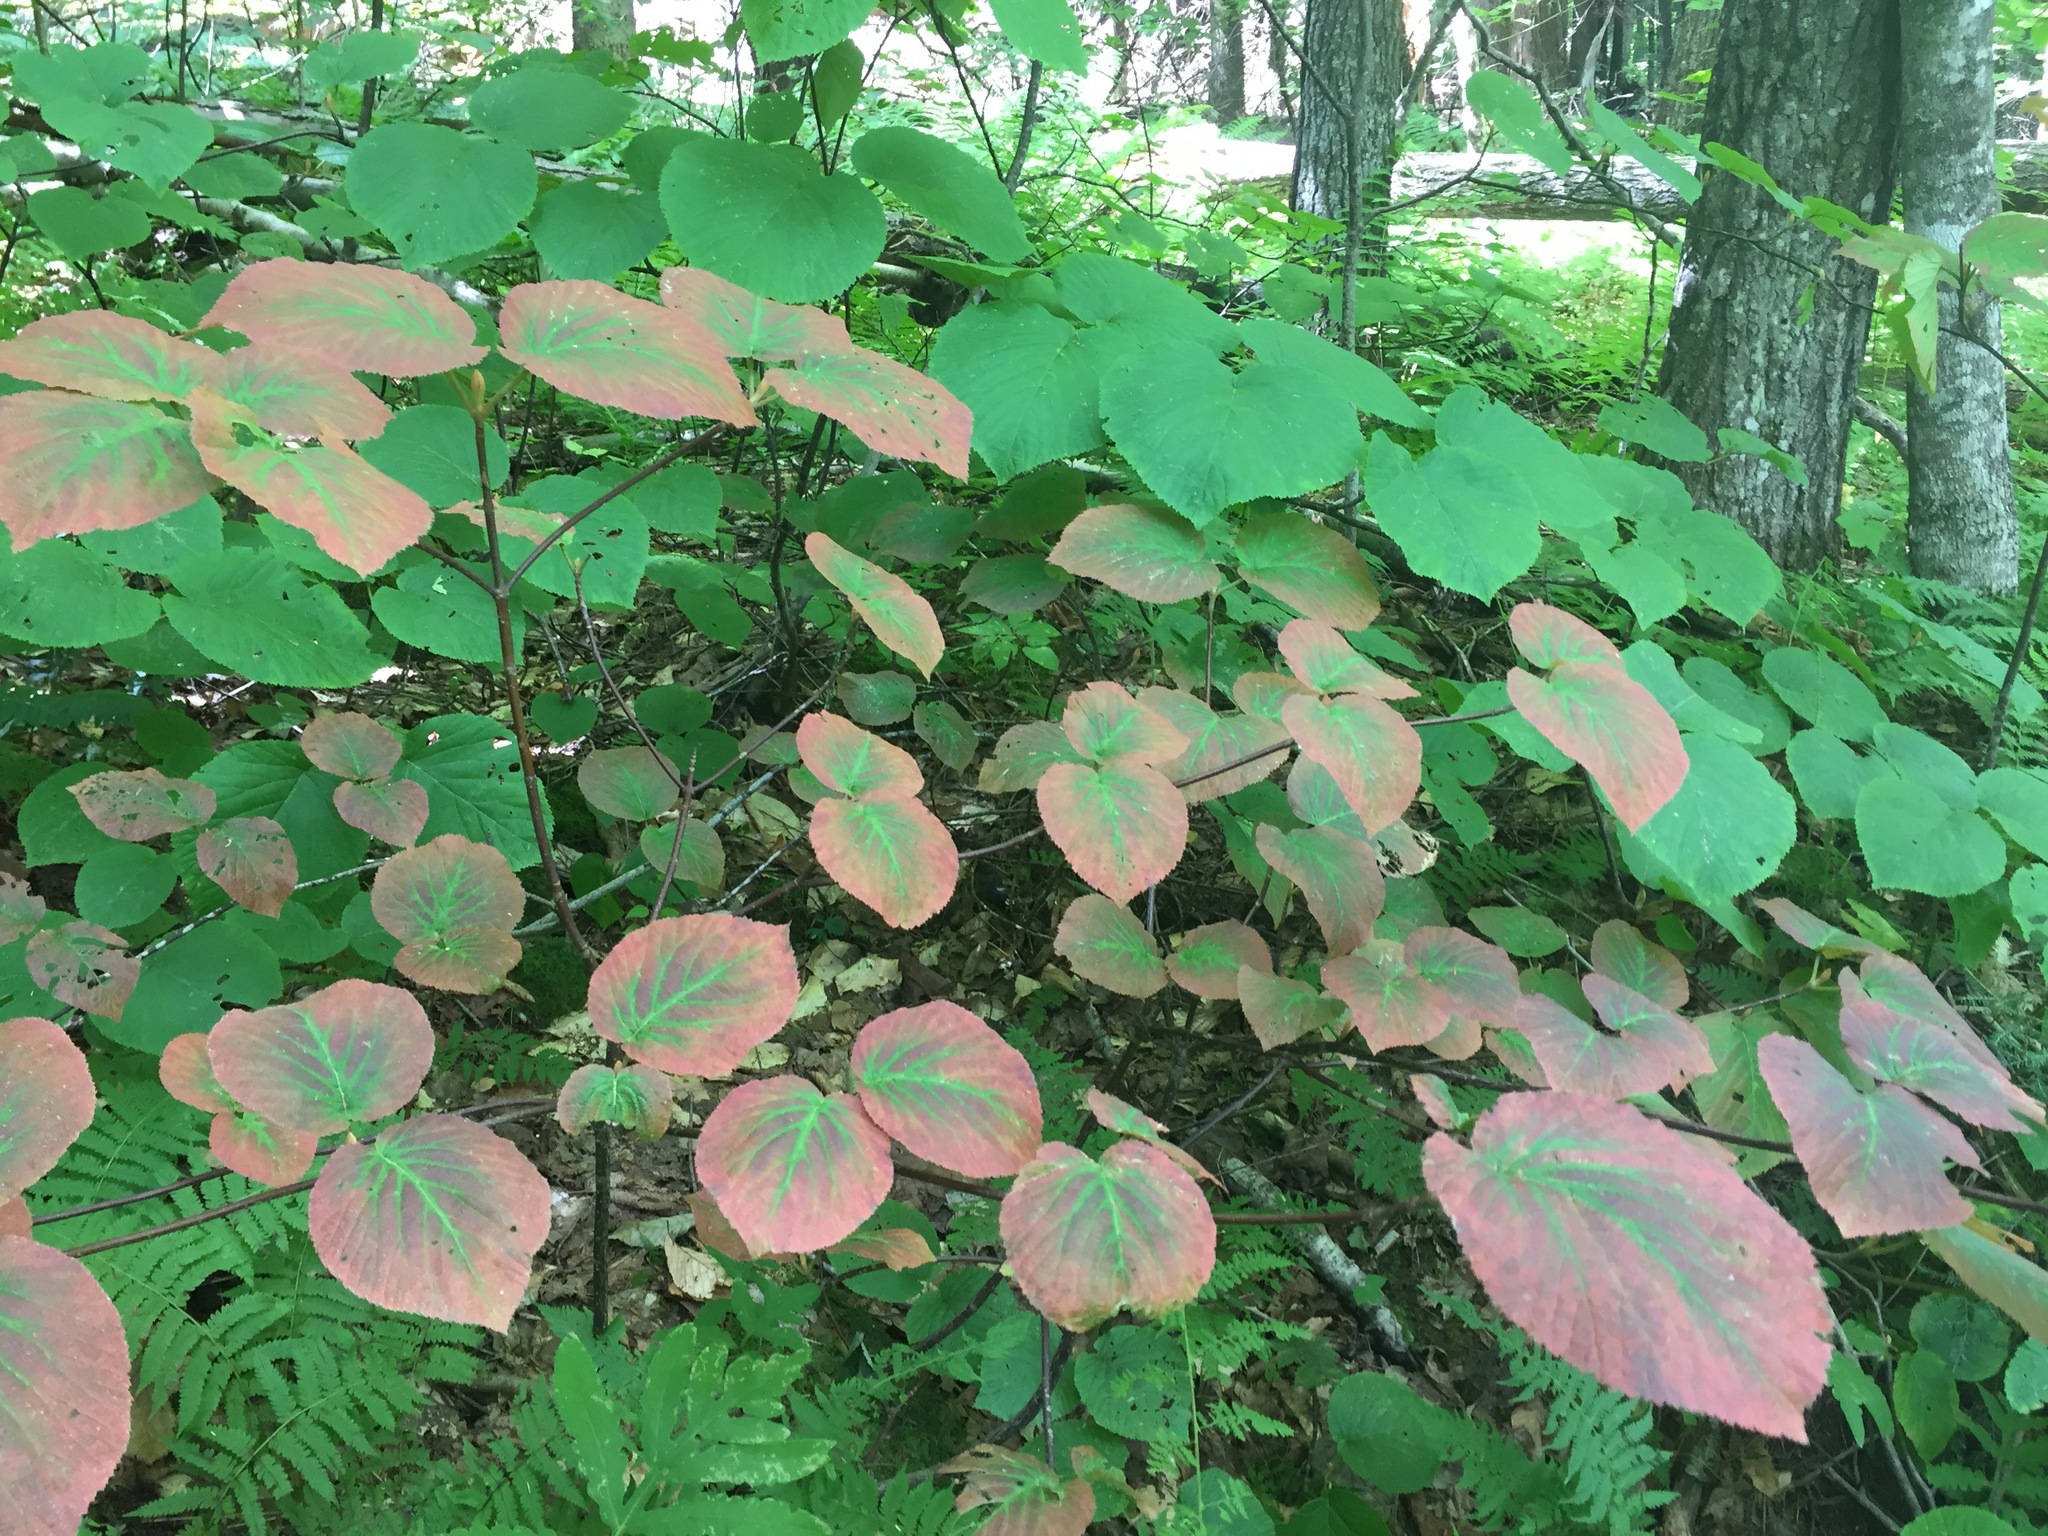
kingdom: Plantae
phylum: Tracheophyta
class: Magnoliopsida
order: Dipsacales
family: Viburnaceae
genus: Viburnum
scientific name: Viburnum lantanoides
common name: Hobblebush
